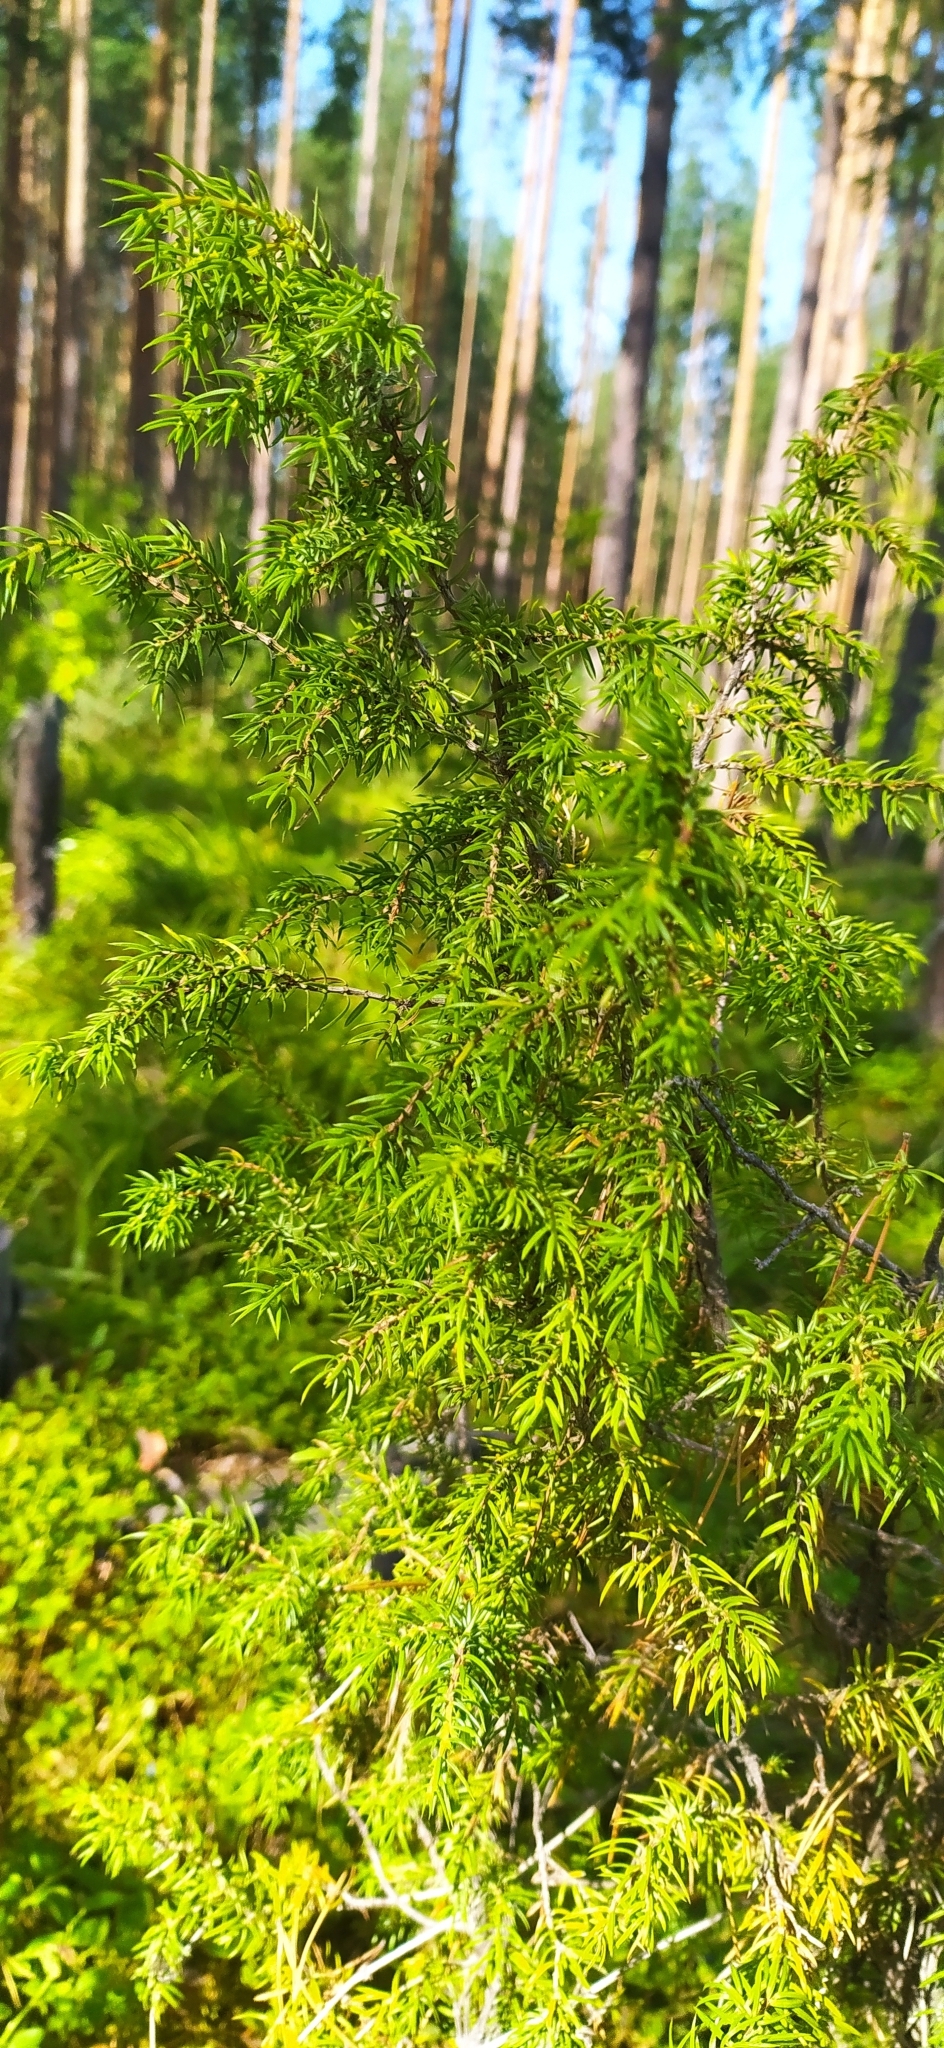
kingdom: Plantae
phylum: Tracheophyta
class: Pinopsida
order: Pinales
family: Cupressaceae
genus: Juniperus
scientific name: Juniperus communis
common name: Common juniper
